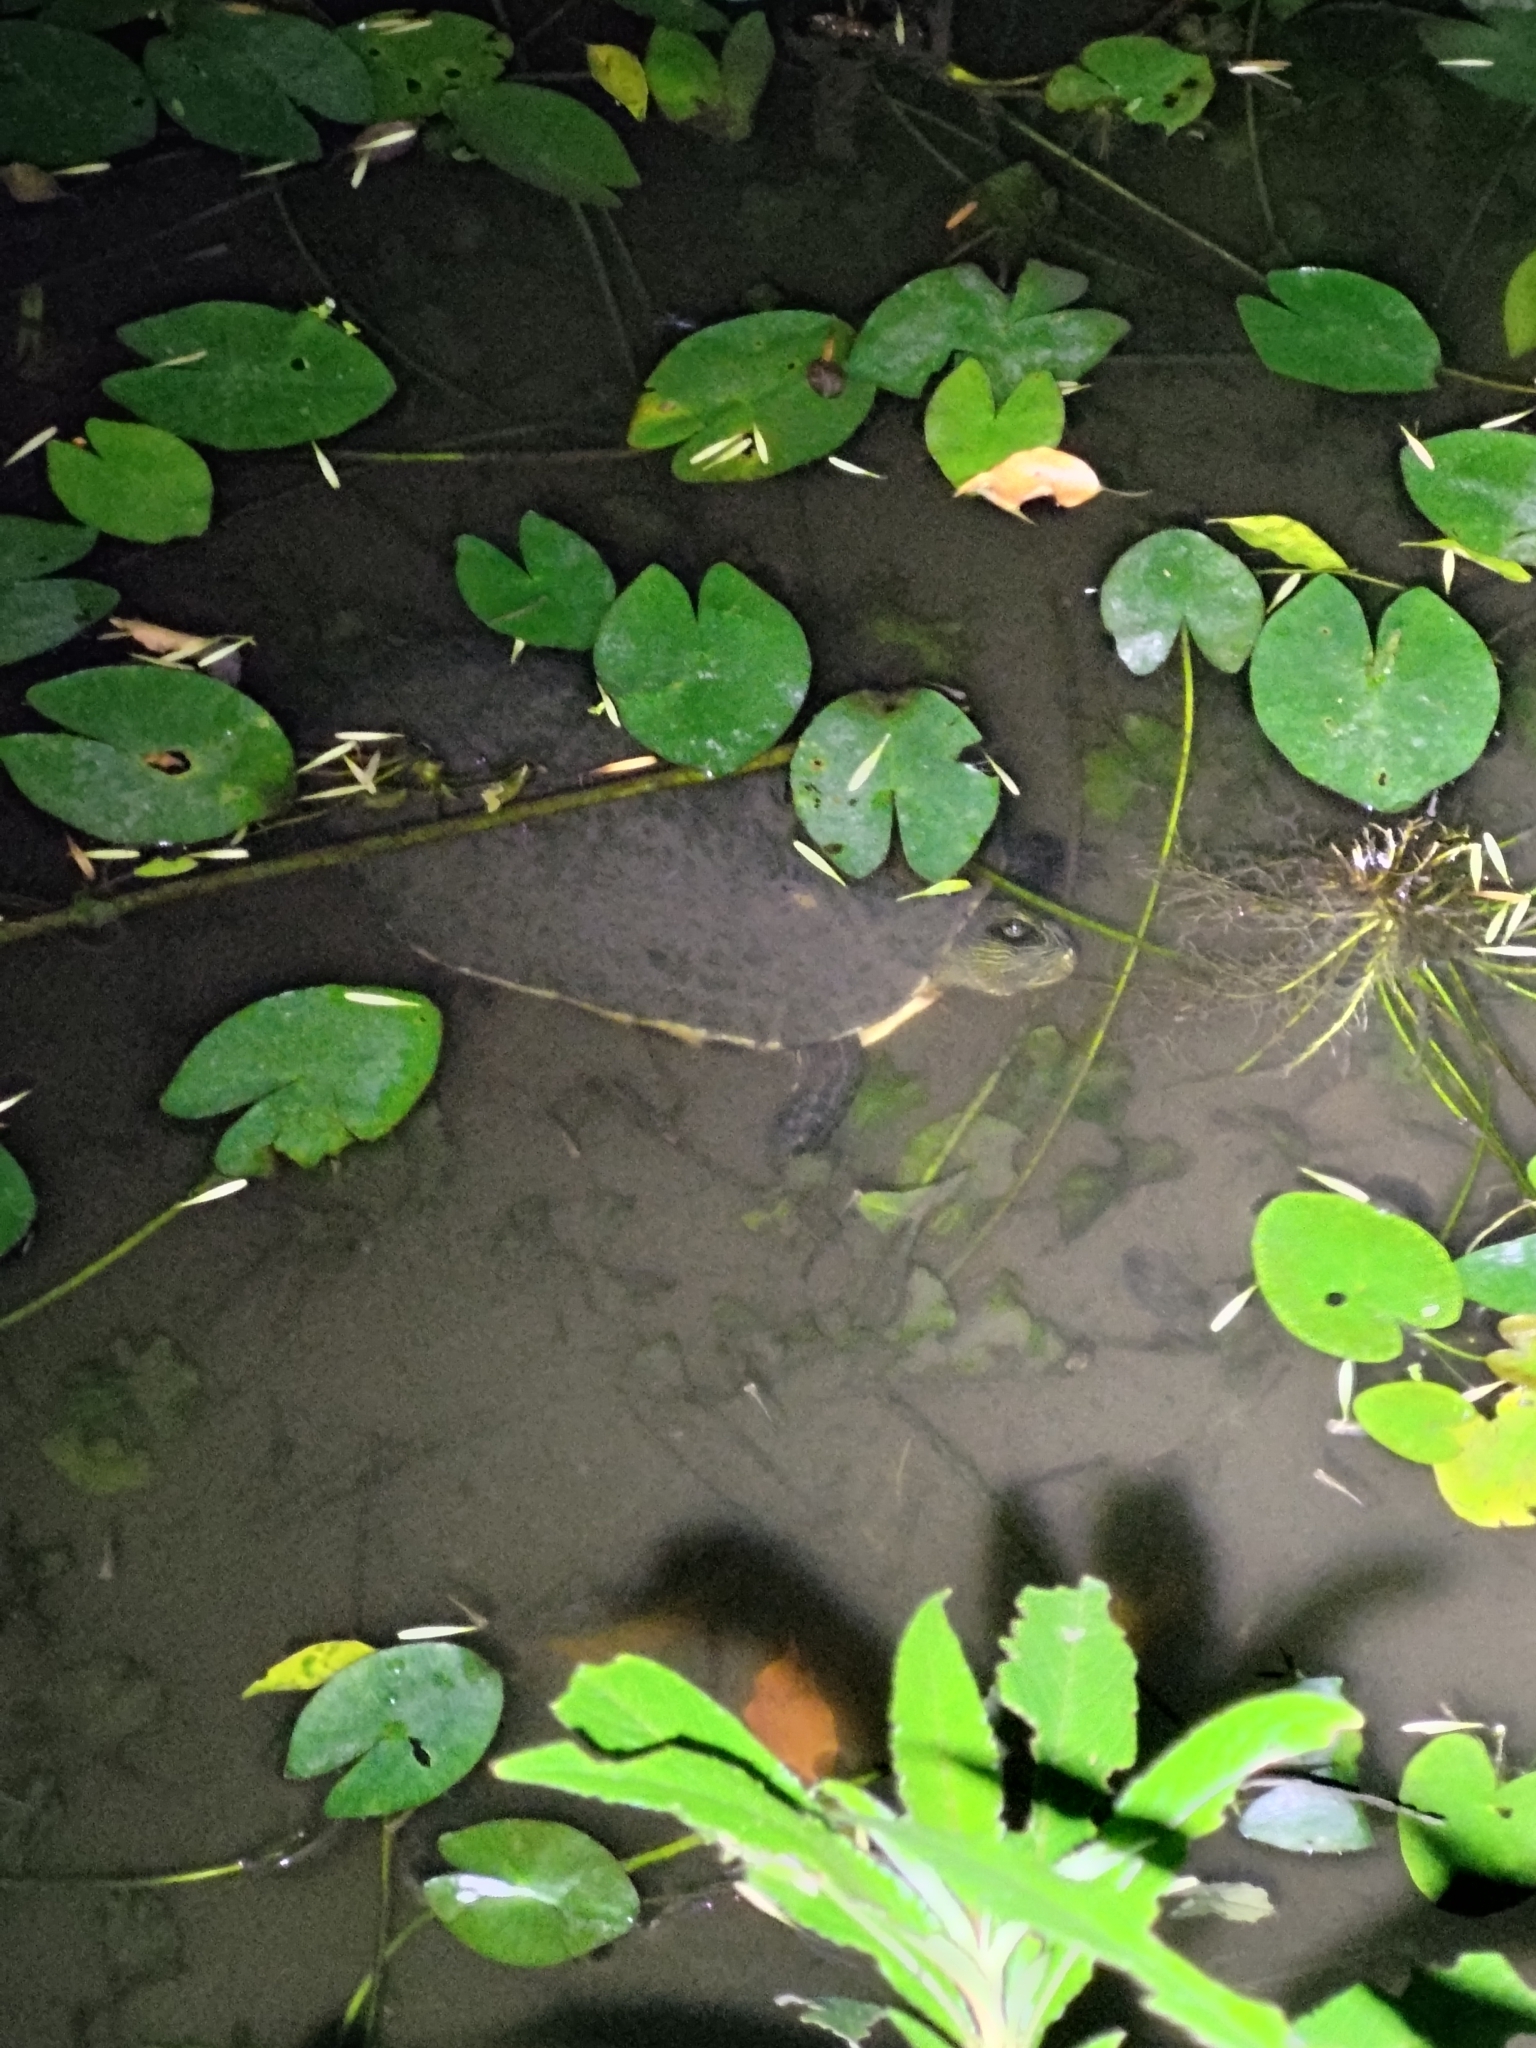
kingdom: Animalia
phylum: Chordata
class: Testudines
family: Geoemydidae
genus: Mauremys
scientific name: Mauremys sinensis
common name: Chinese stripe-necked turtle
